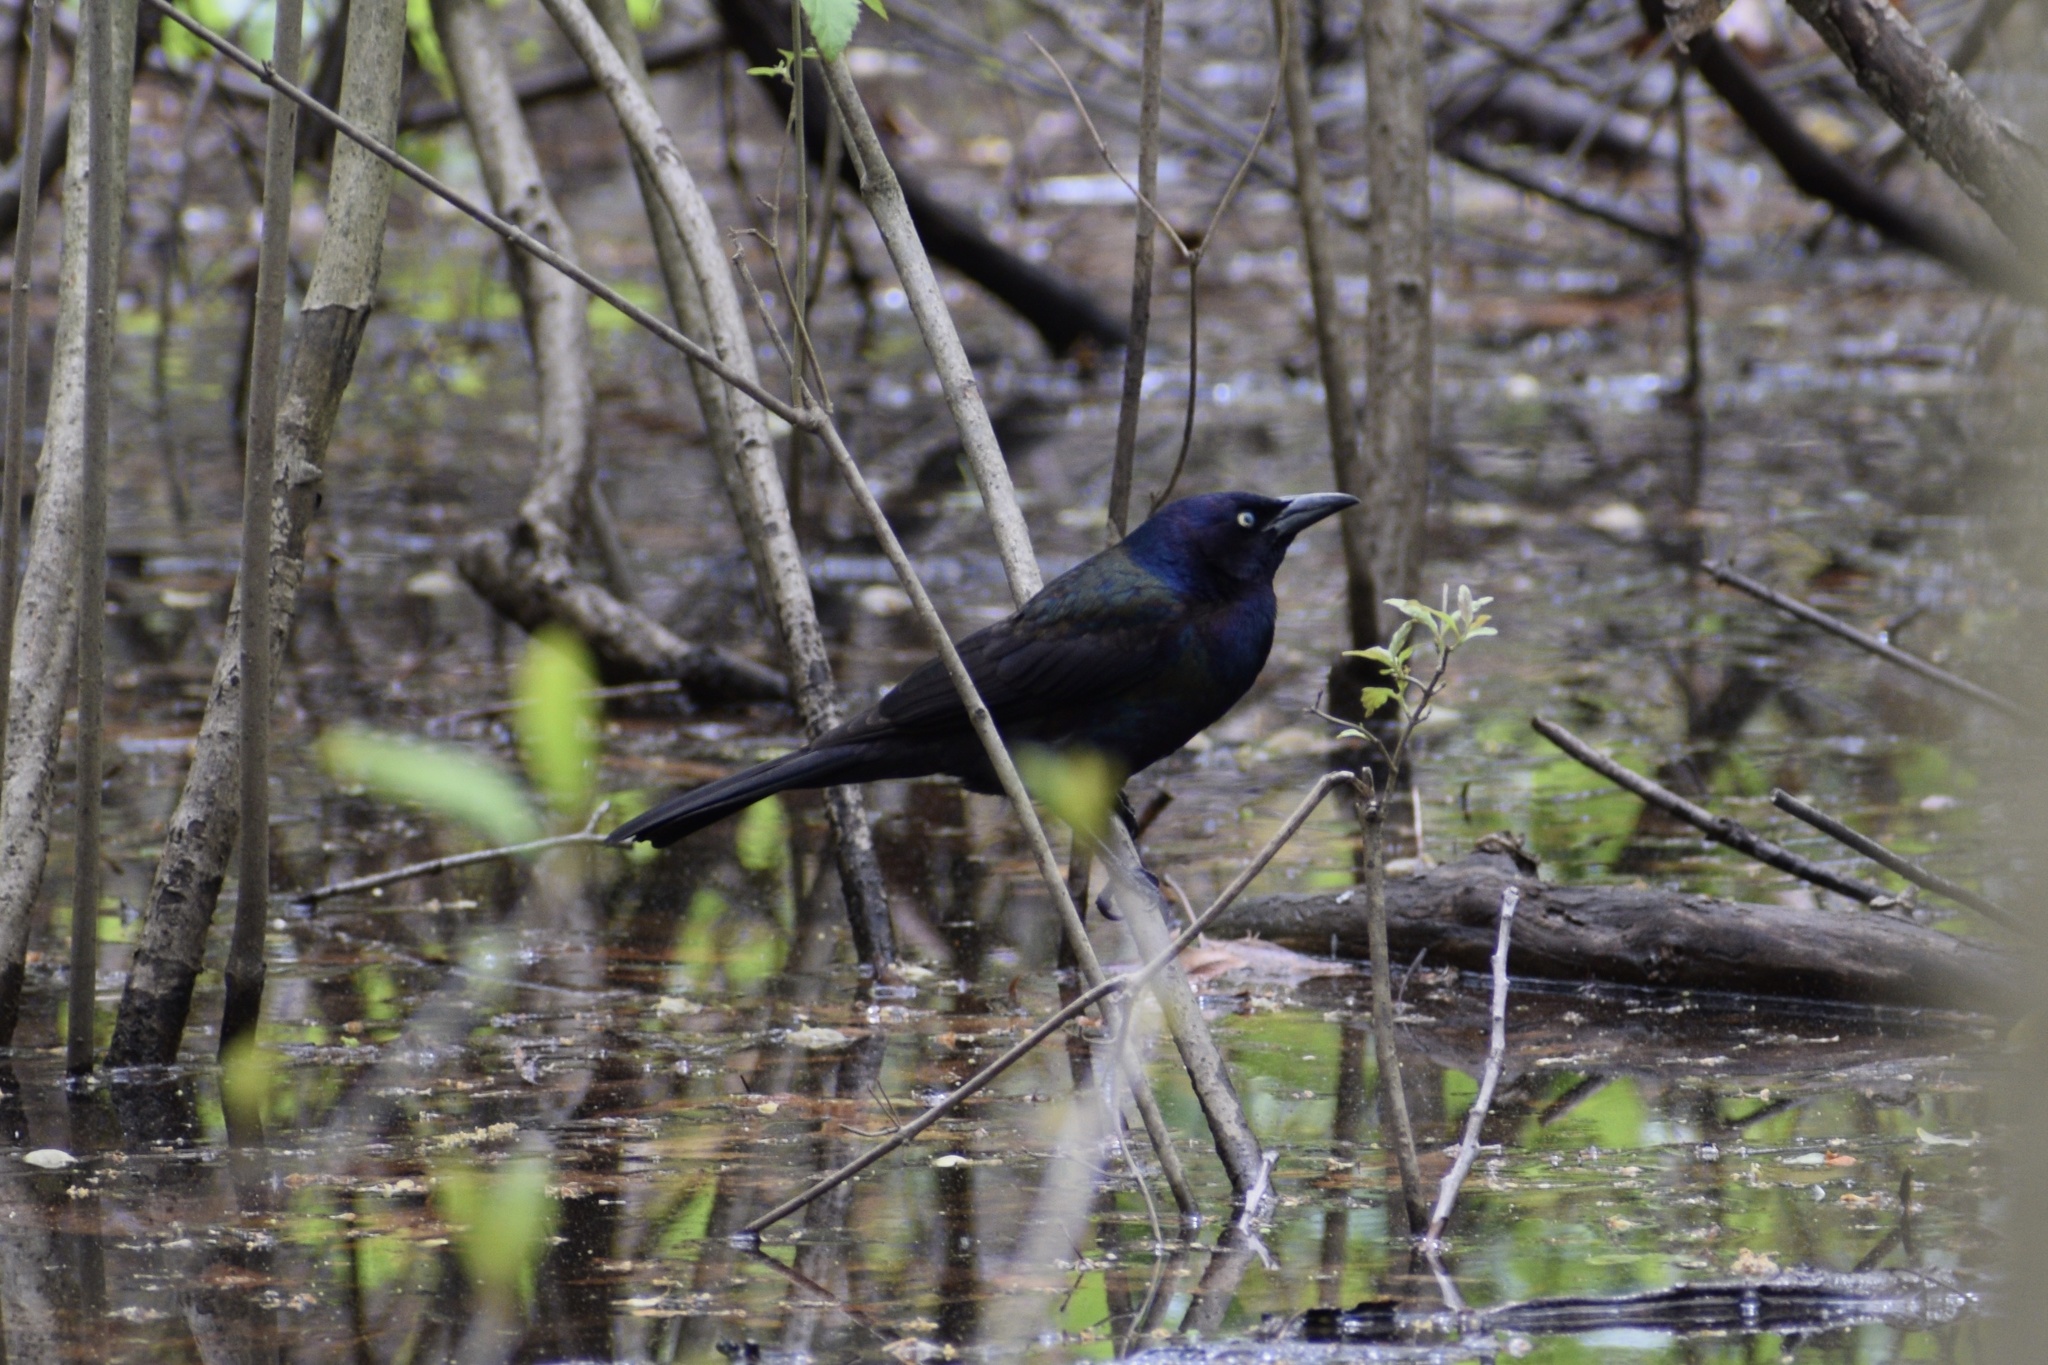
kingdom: Animalia
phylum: Chordata
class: Aves
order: Passeriformes
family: Icteridae
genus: Quiscalus
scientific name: Quiscalus quiscula
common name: Common grackle
